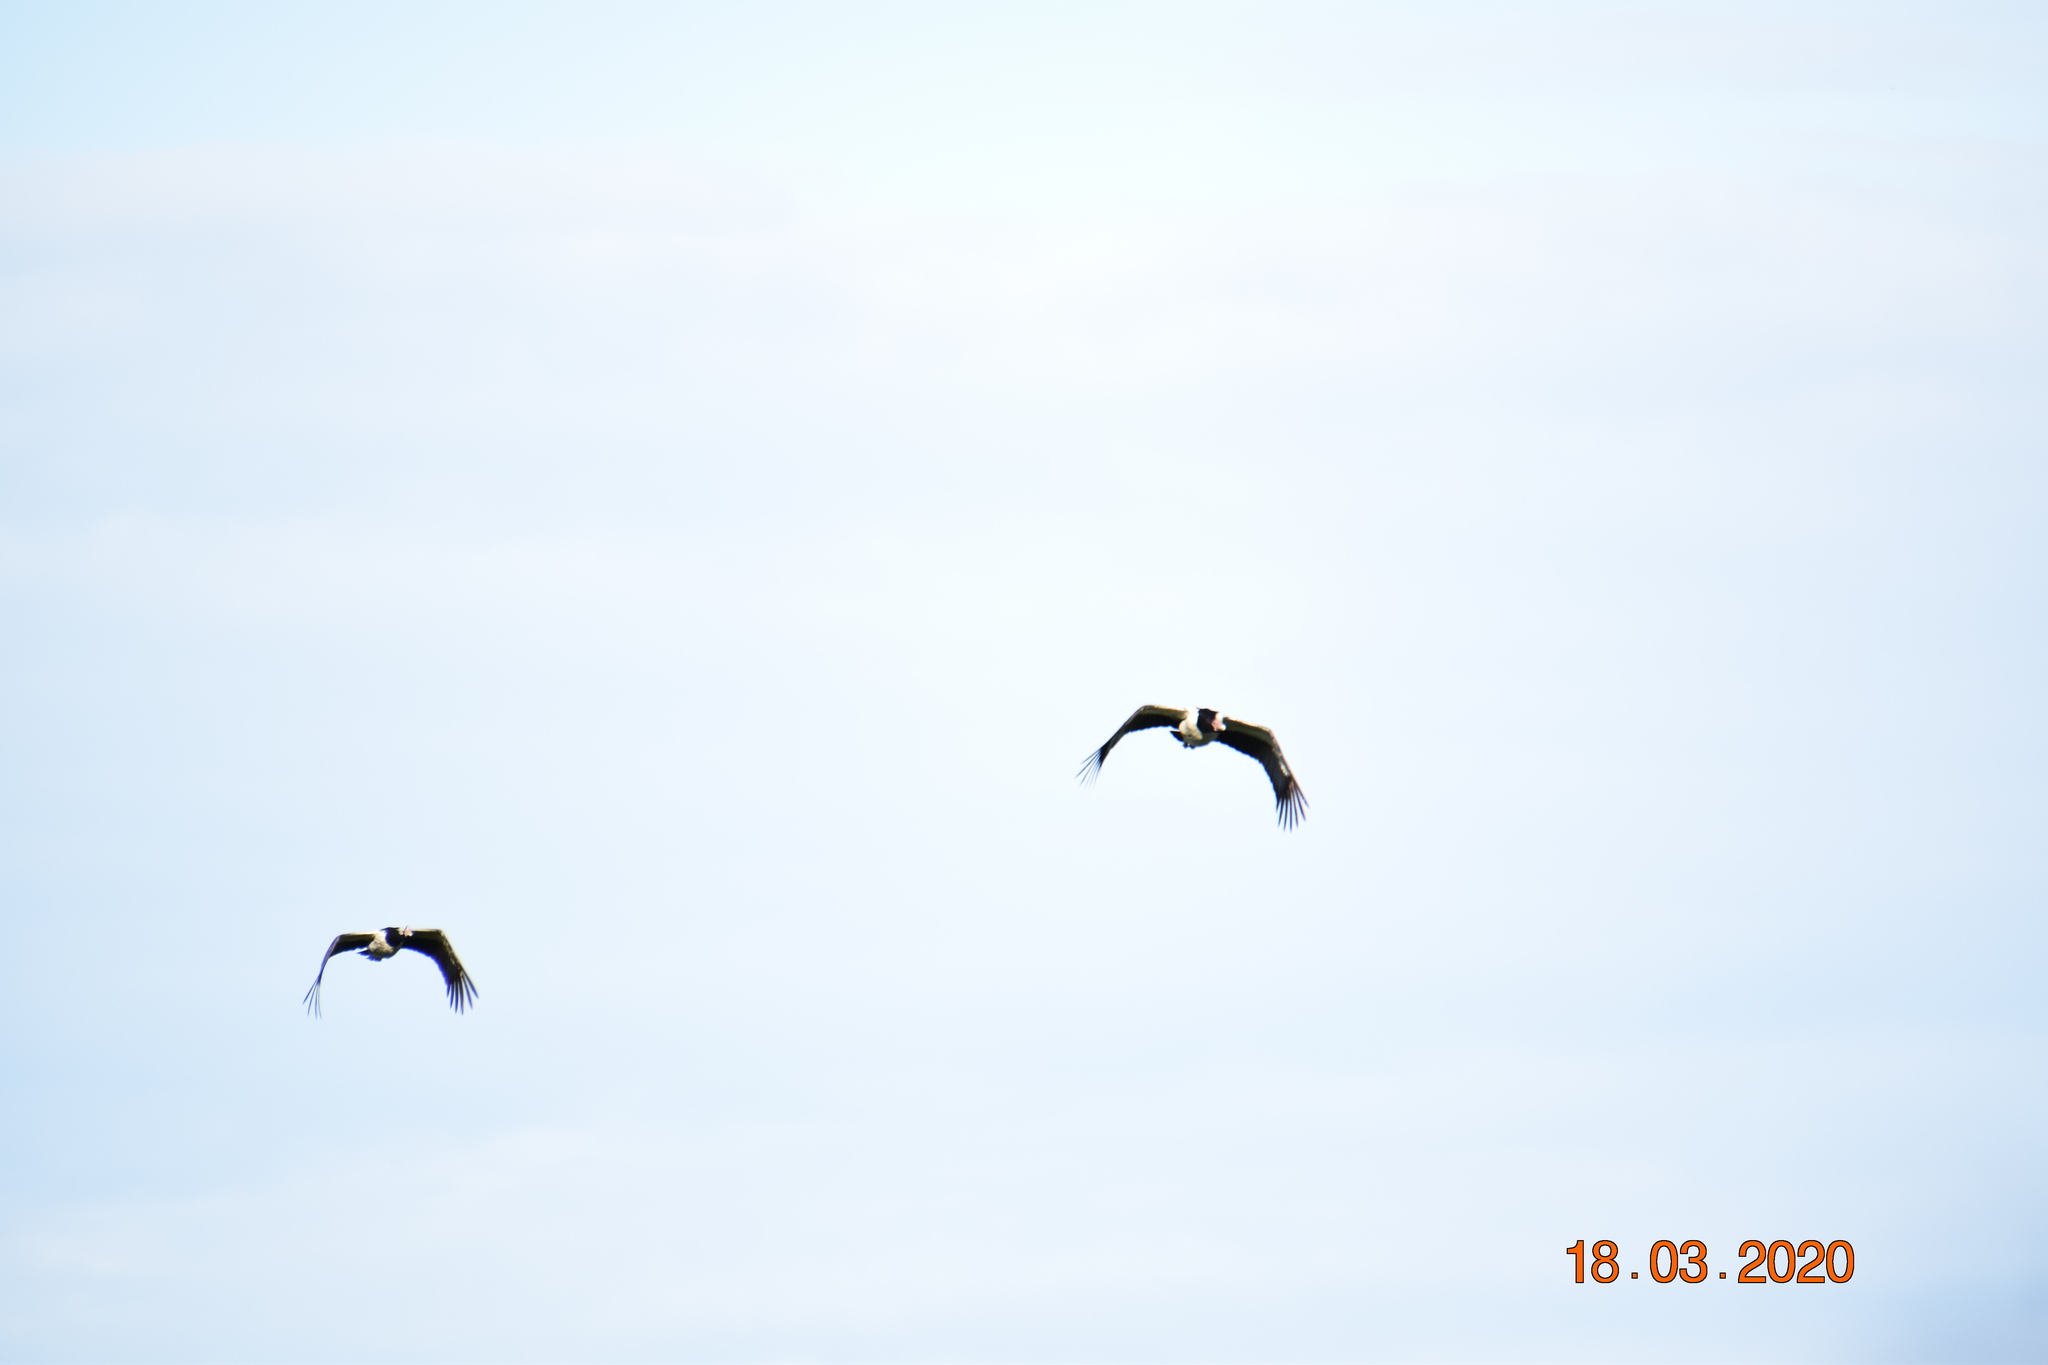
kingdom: Animalia
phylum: Chordata
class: Aves
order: Anseriformes
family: Anseranatidae
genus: Anseranas
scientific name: Anseranas semipalmata
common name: Magpie goose
